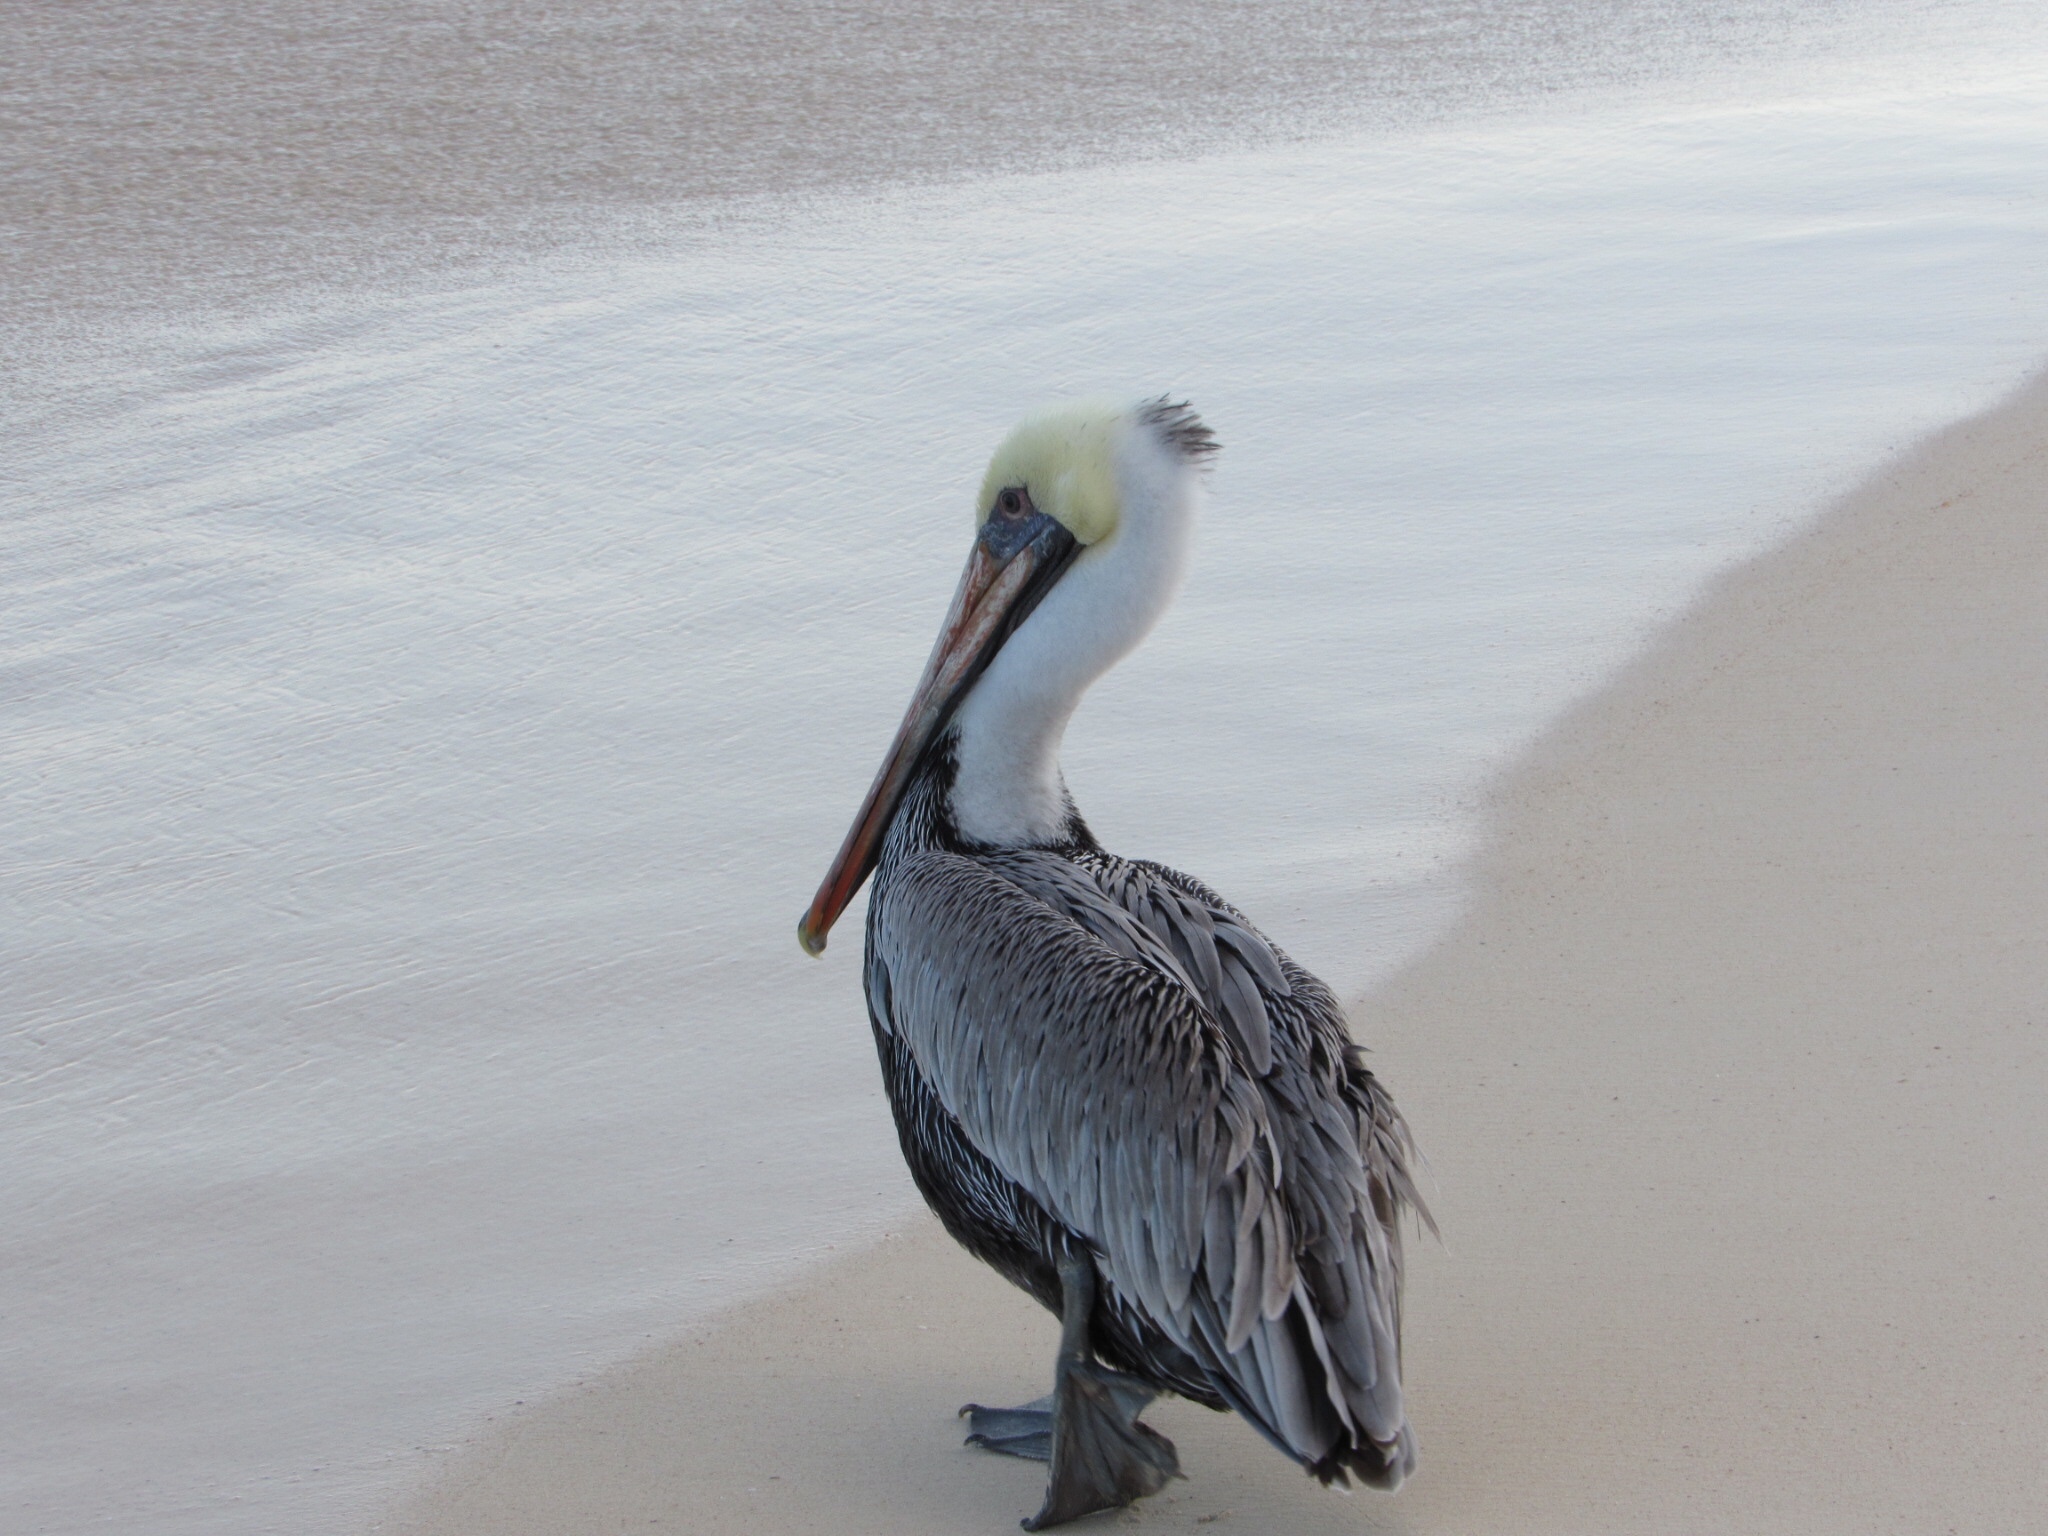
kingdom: Animalia
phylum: Chordata
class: Aves
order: Pelecaniformes
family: Pelecanidae
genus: Pelecanus
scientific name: Pelecanus occidentalis
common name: Brown pelican
